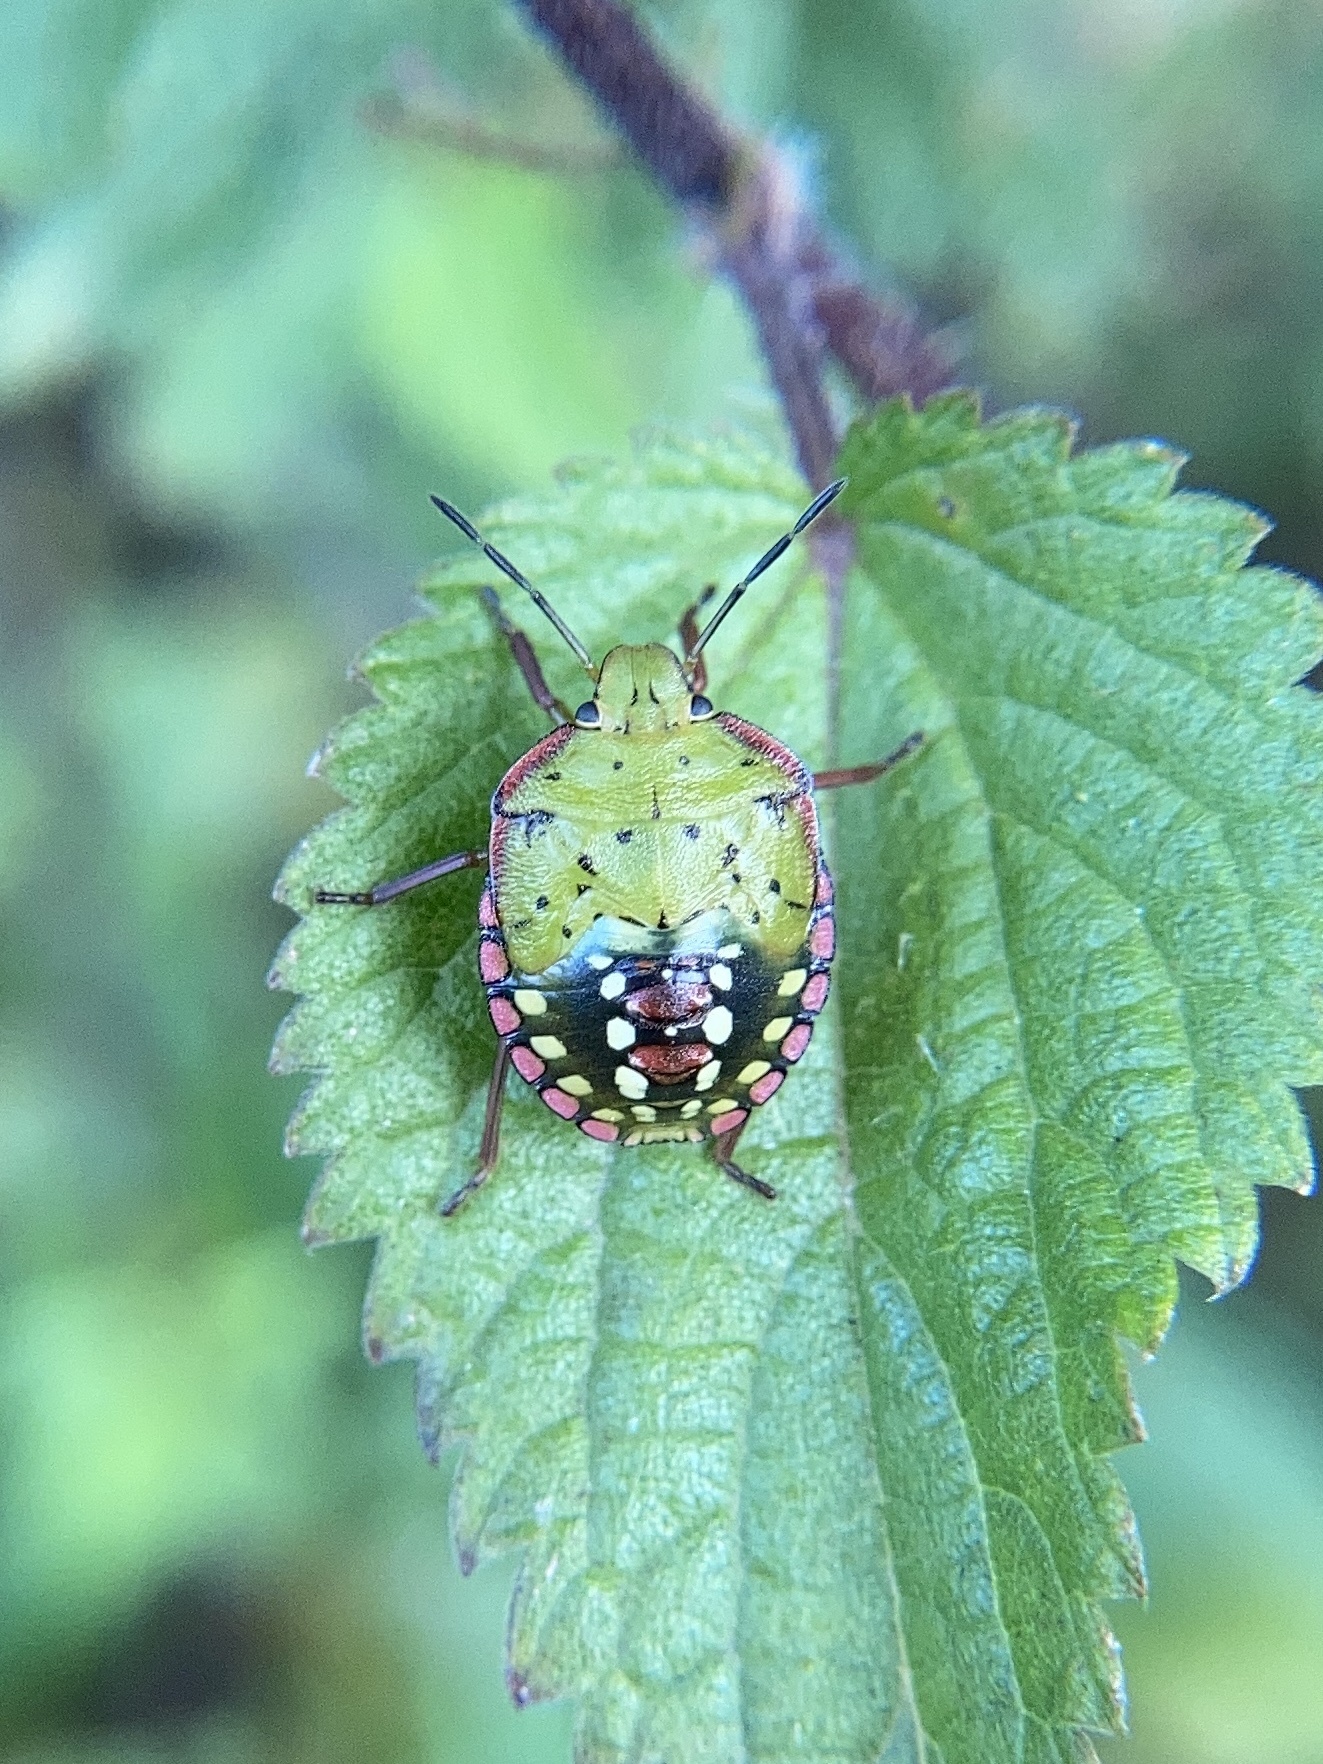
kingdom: Animalia
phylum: Arthropoda
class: Insecta
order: Hemiptera
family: Pentatomidae
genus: Nezara
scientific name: Nezara viridula
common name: Southern green stink bug
